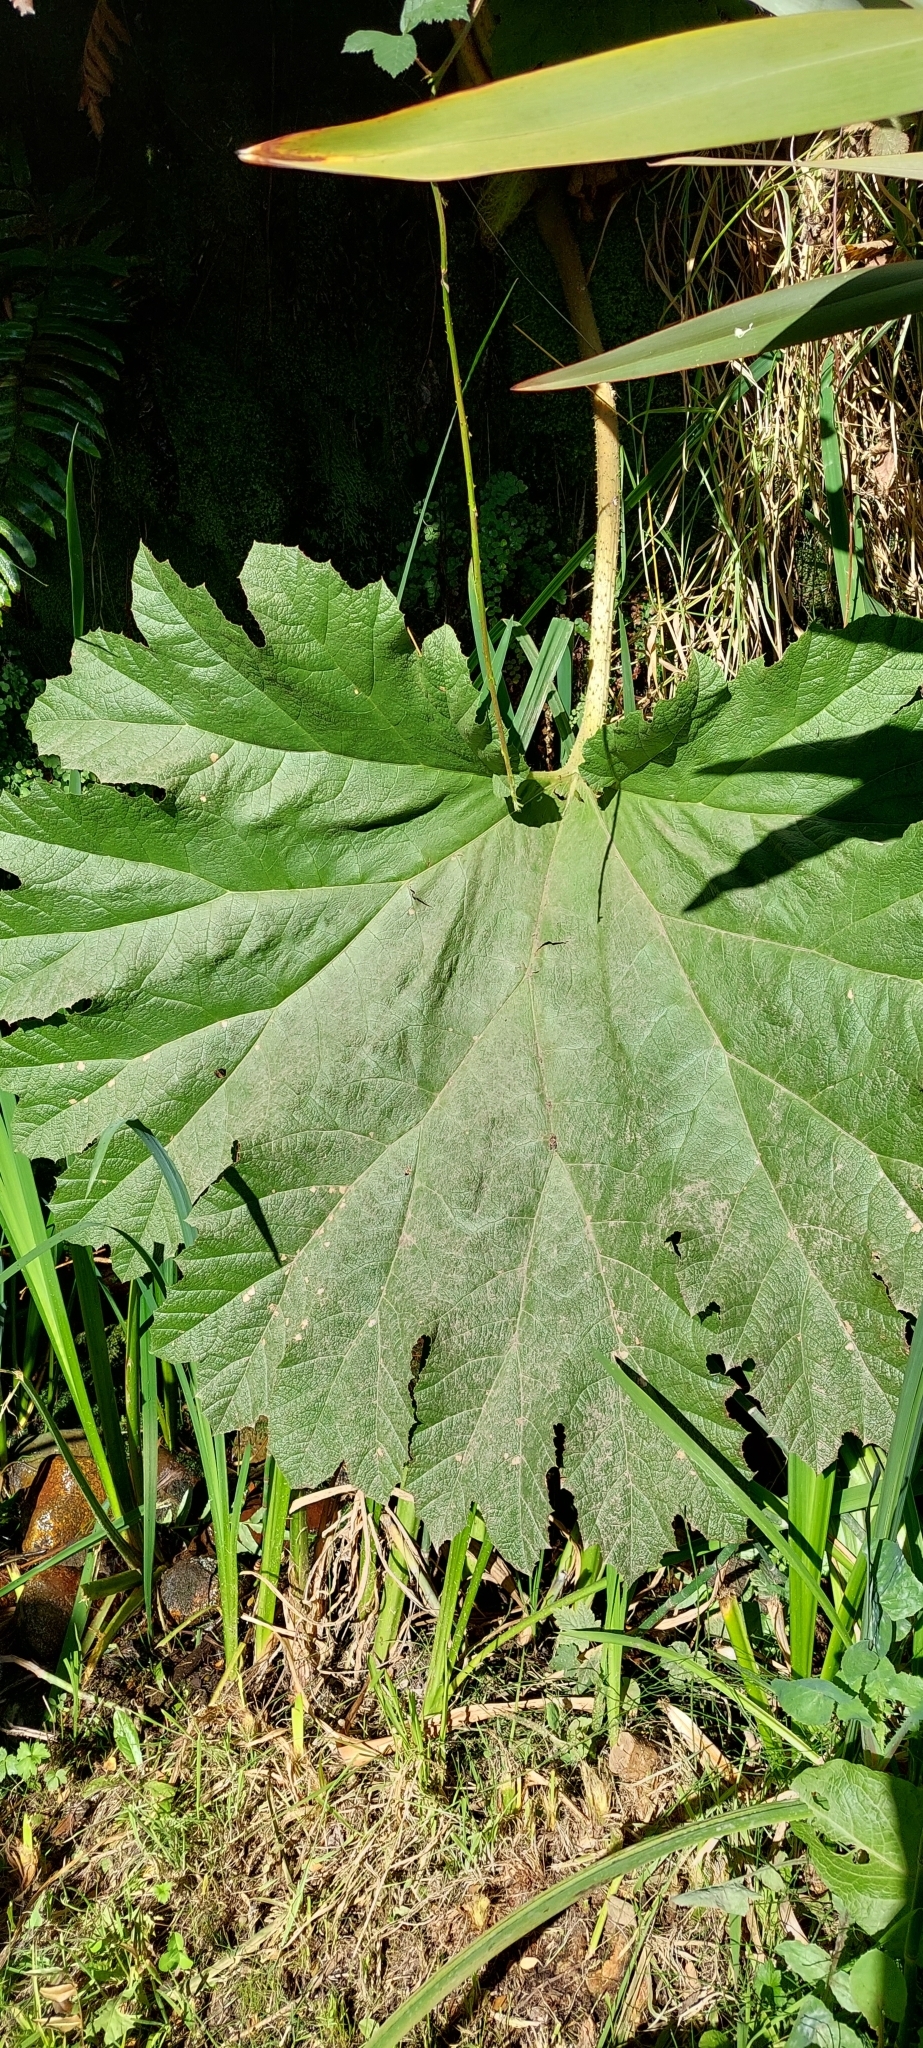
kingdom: Plantae
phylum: Tracheophyta
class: Magnoliopsida
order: Gunnerales
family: Gunneraceae
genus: Gunnera
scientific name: Gunnera tinctoria
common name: Giant-rhubarb
